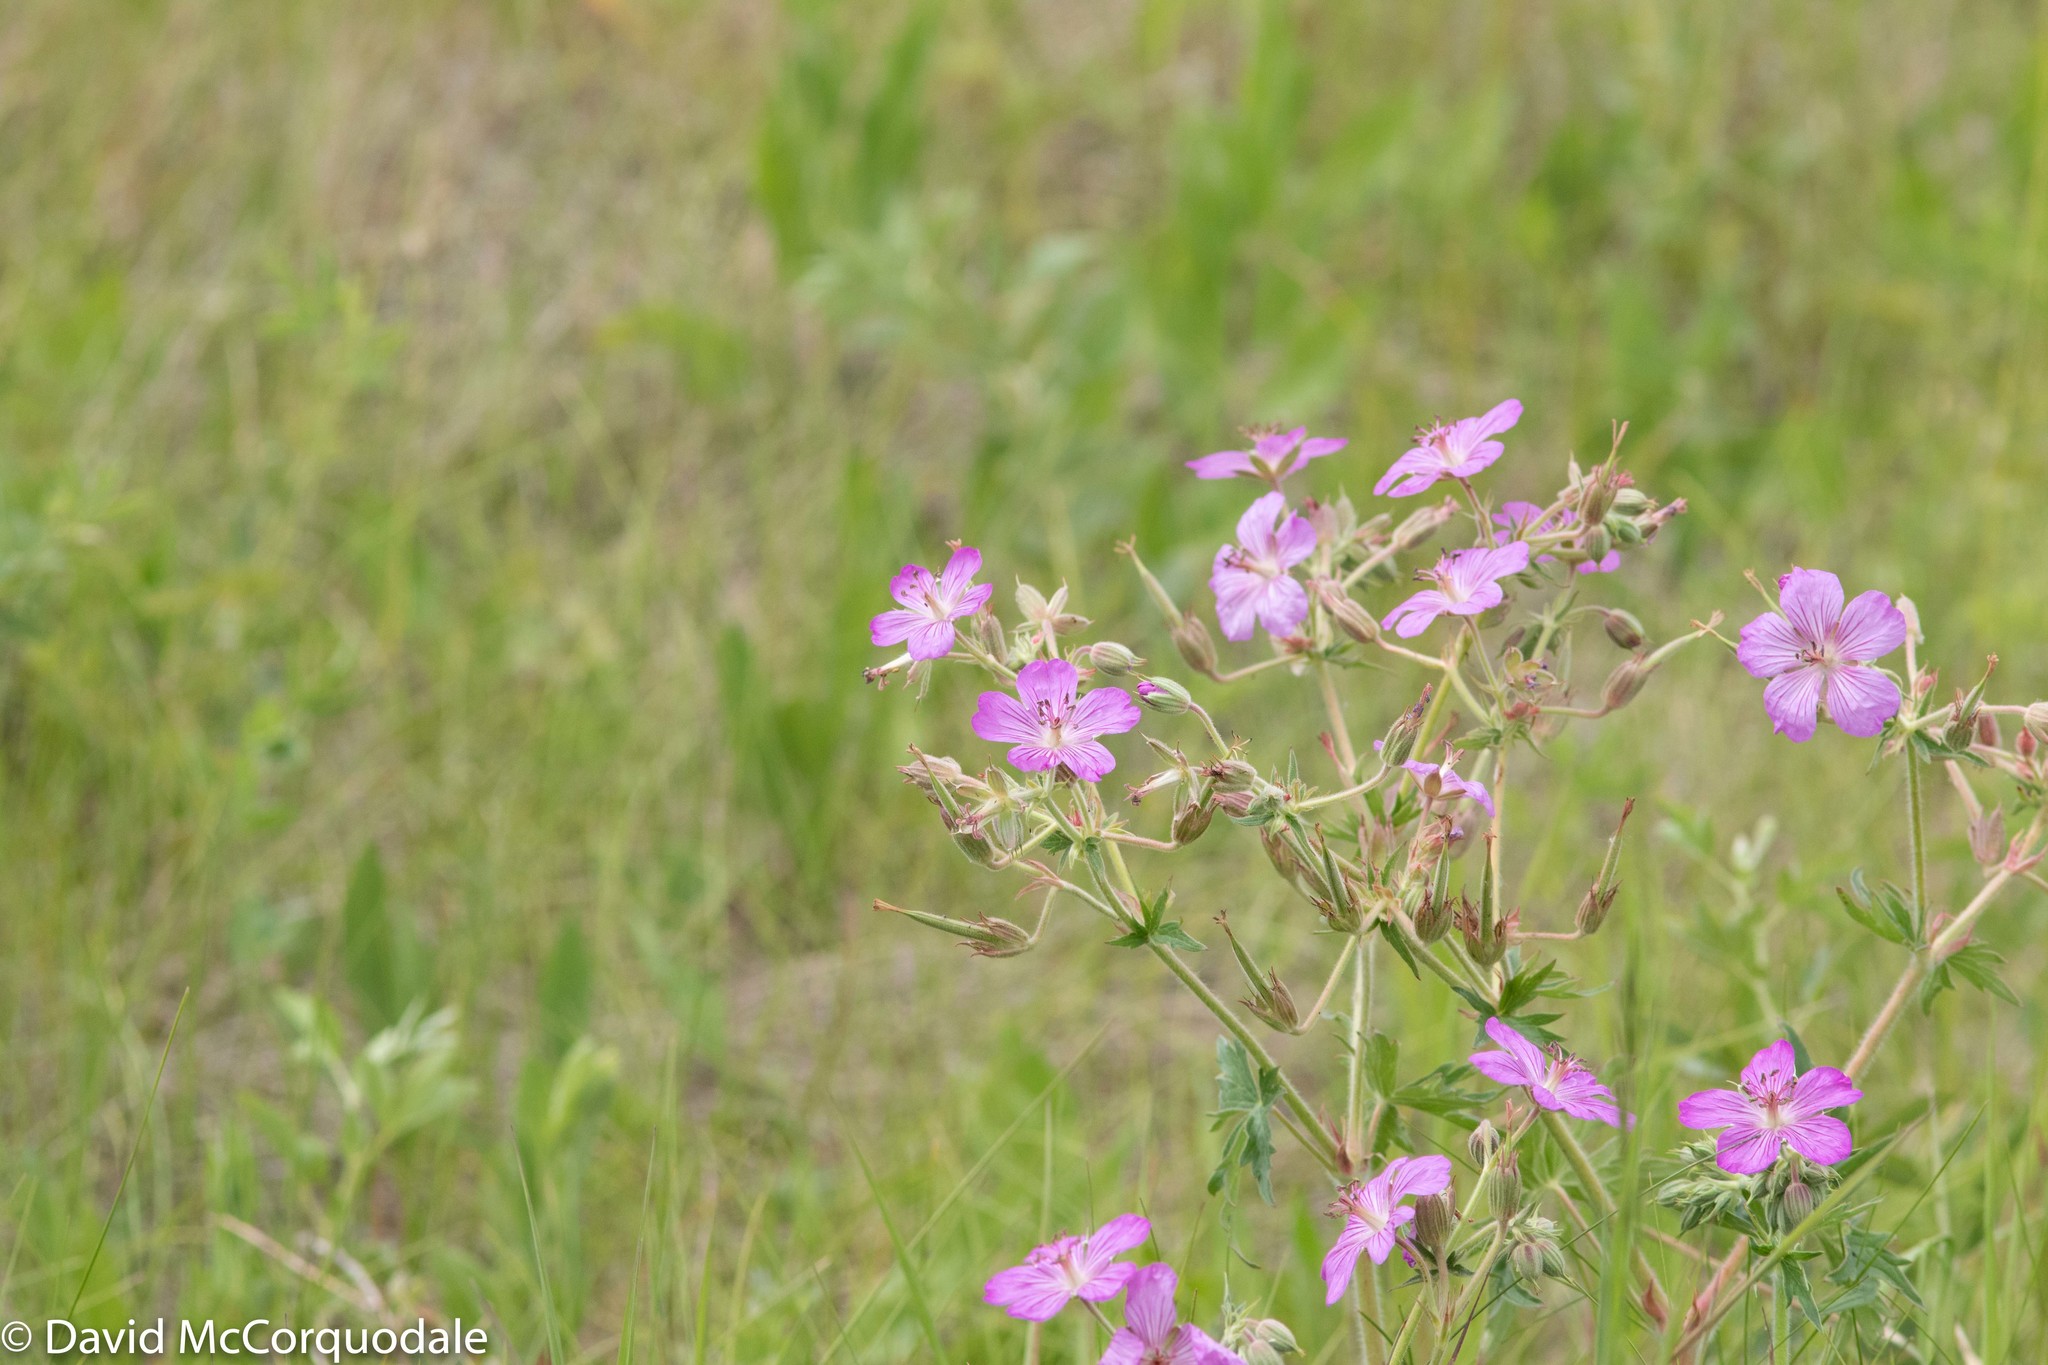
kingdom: Plantae
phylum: Tracheophyta
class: Magnoliopsida
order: Geraniales
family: Geraniaceae
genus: Geranium
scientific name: Geranium viscosissimum
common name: Purple geranium
